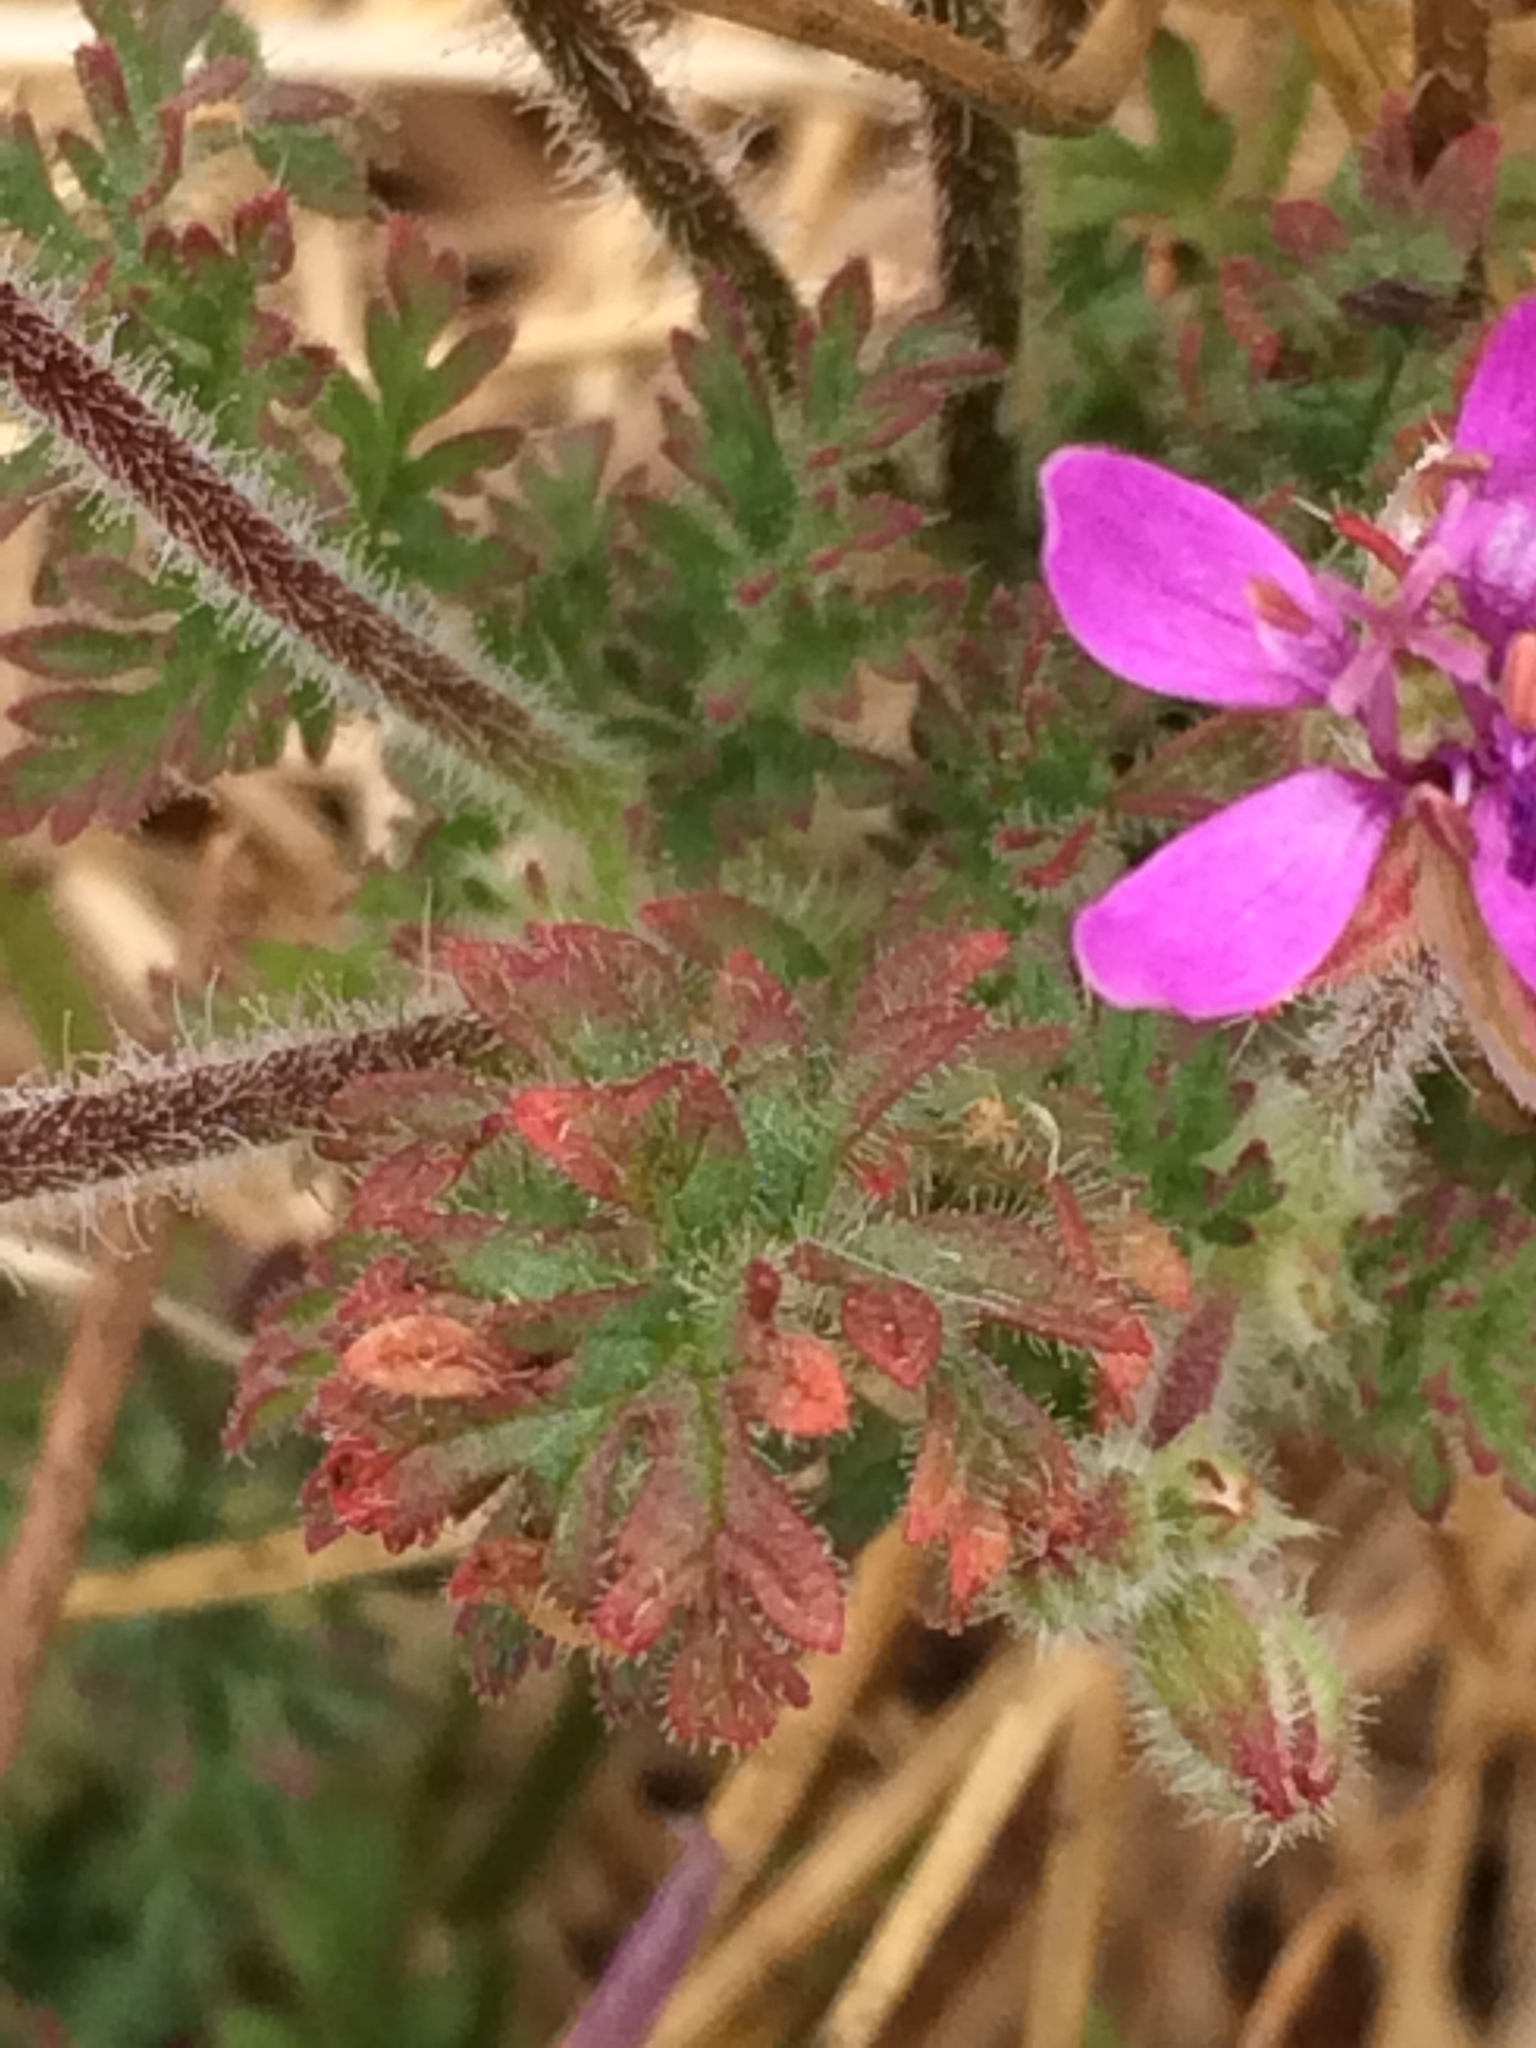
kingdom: Plantae
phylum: Tracheophyta
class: Magnoliopsida
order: Geraniales
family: Geraniaceae
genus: Erodium
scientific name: Erodium cicutarium
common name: Common stork's-bill
